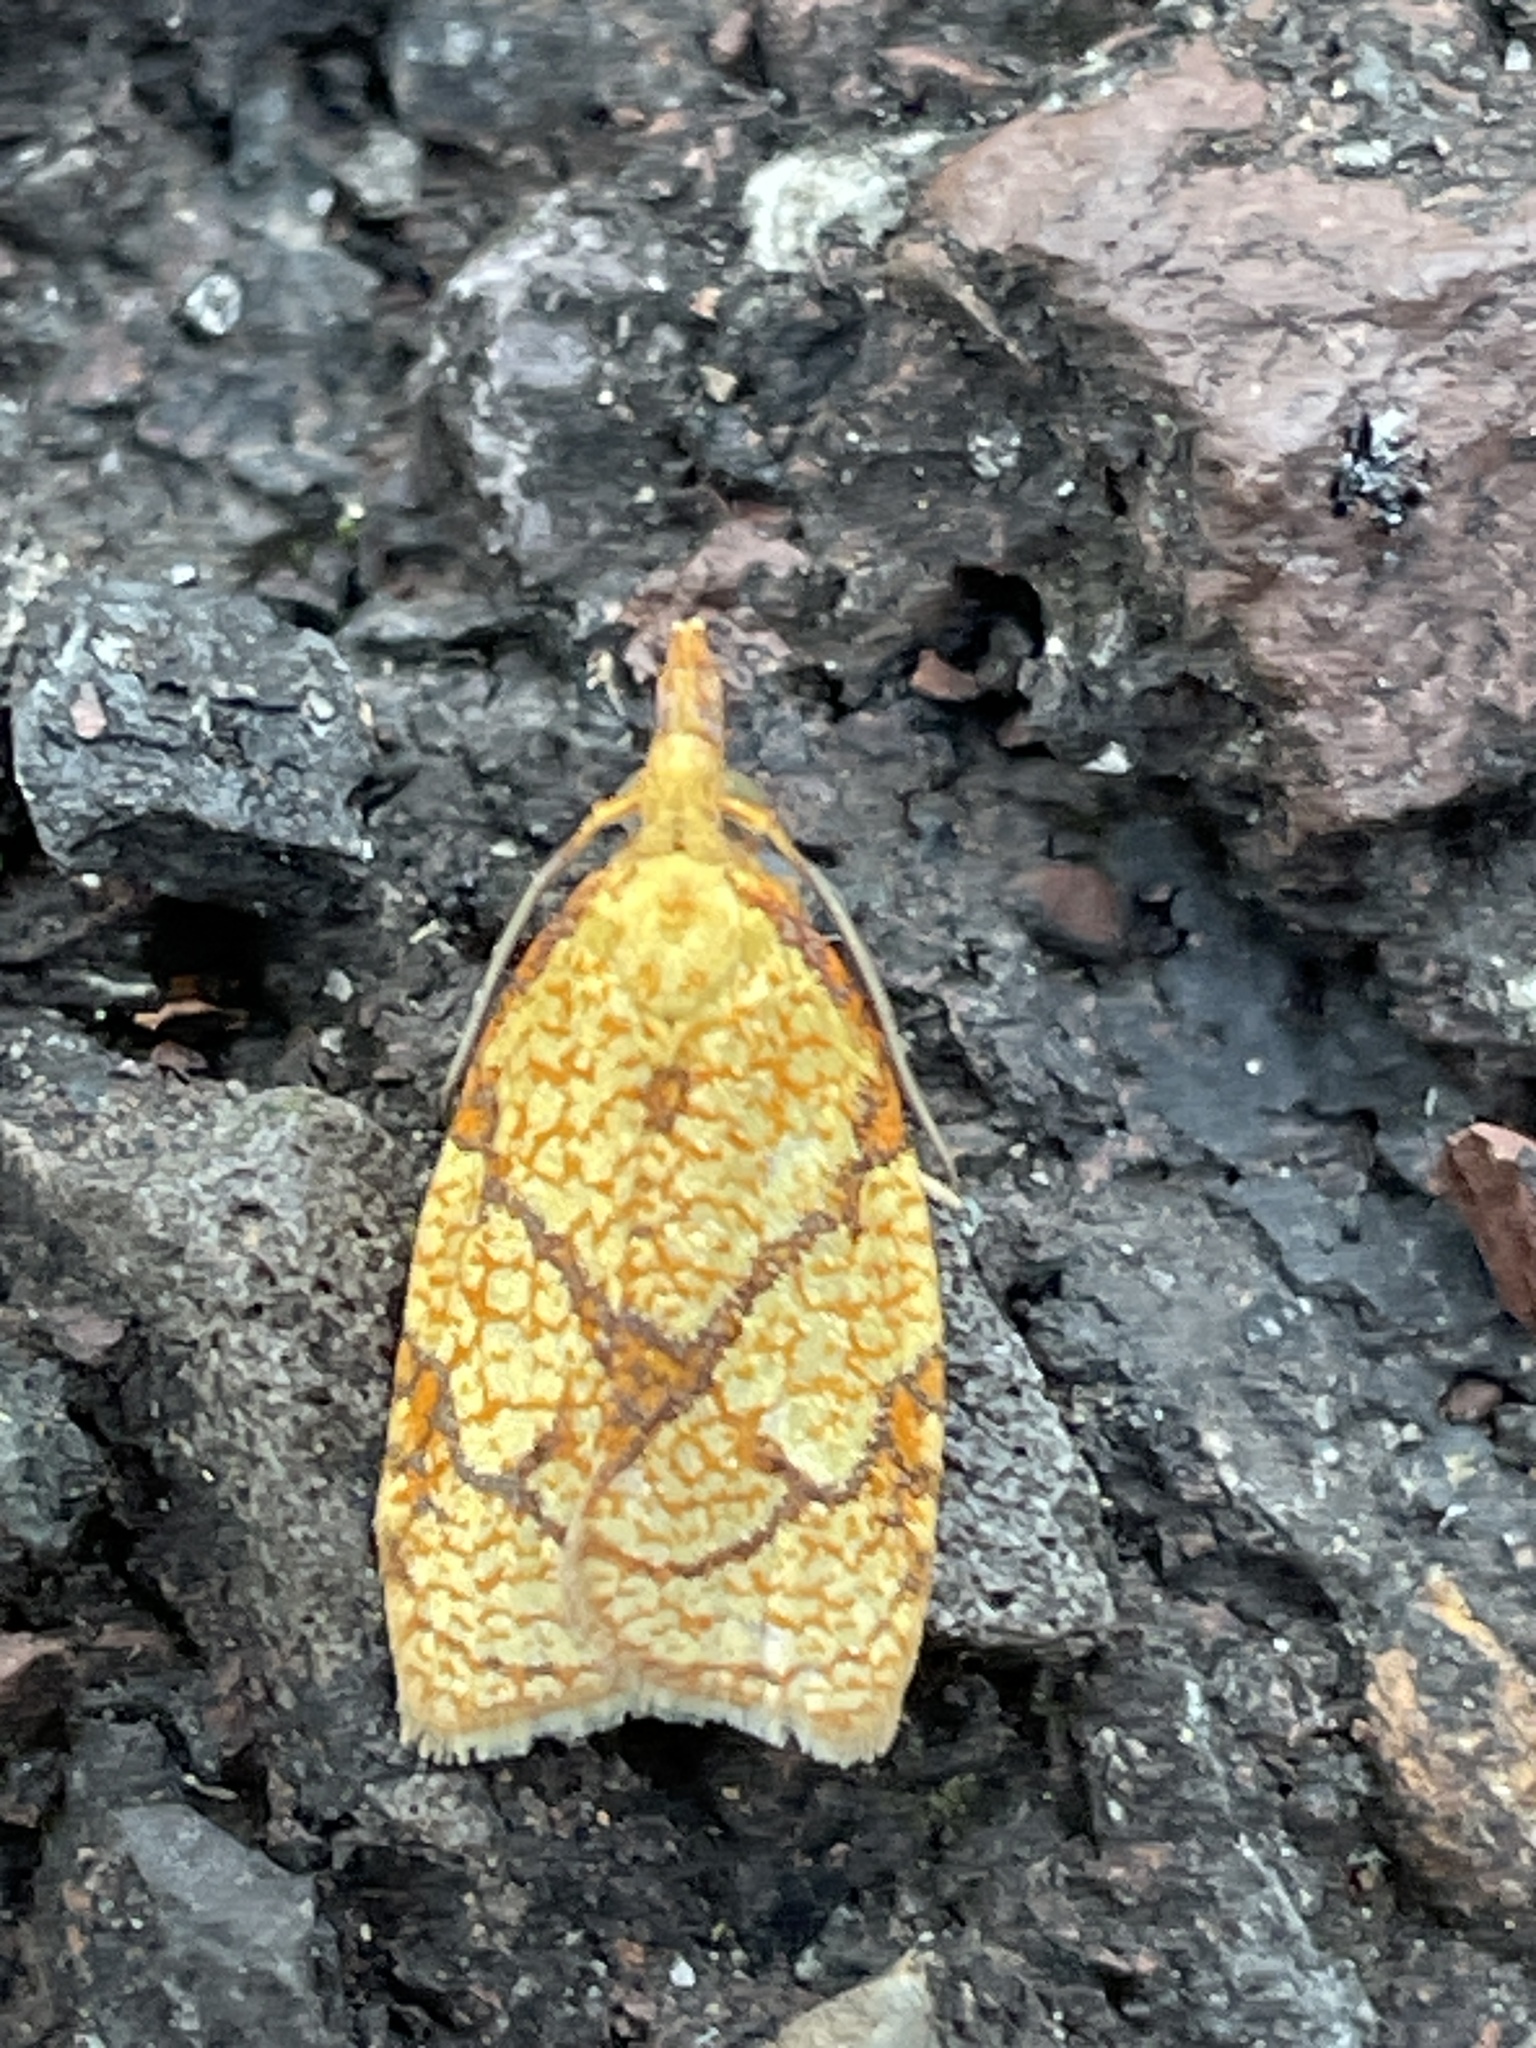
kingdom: Animalia
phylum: Arthropoda
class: Insecta
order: Lepidoptera
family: Tortricidae
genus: Cenopis
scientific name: Cenopis reticulatana
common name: Reticulated fruitworm moth
